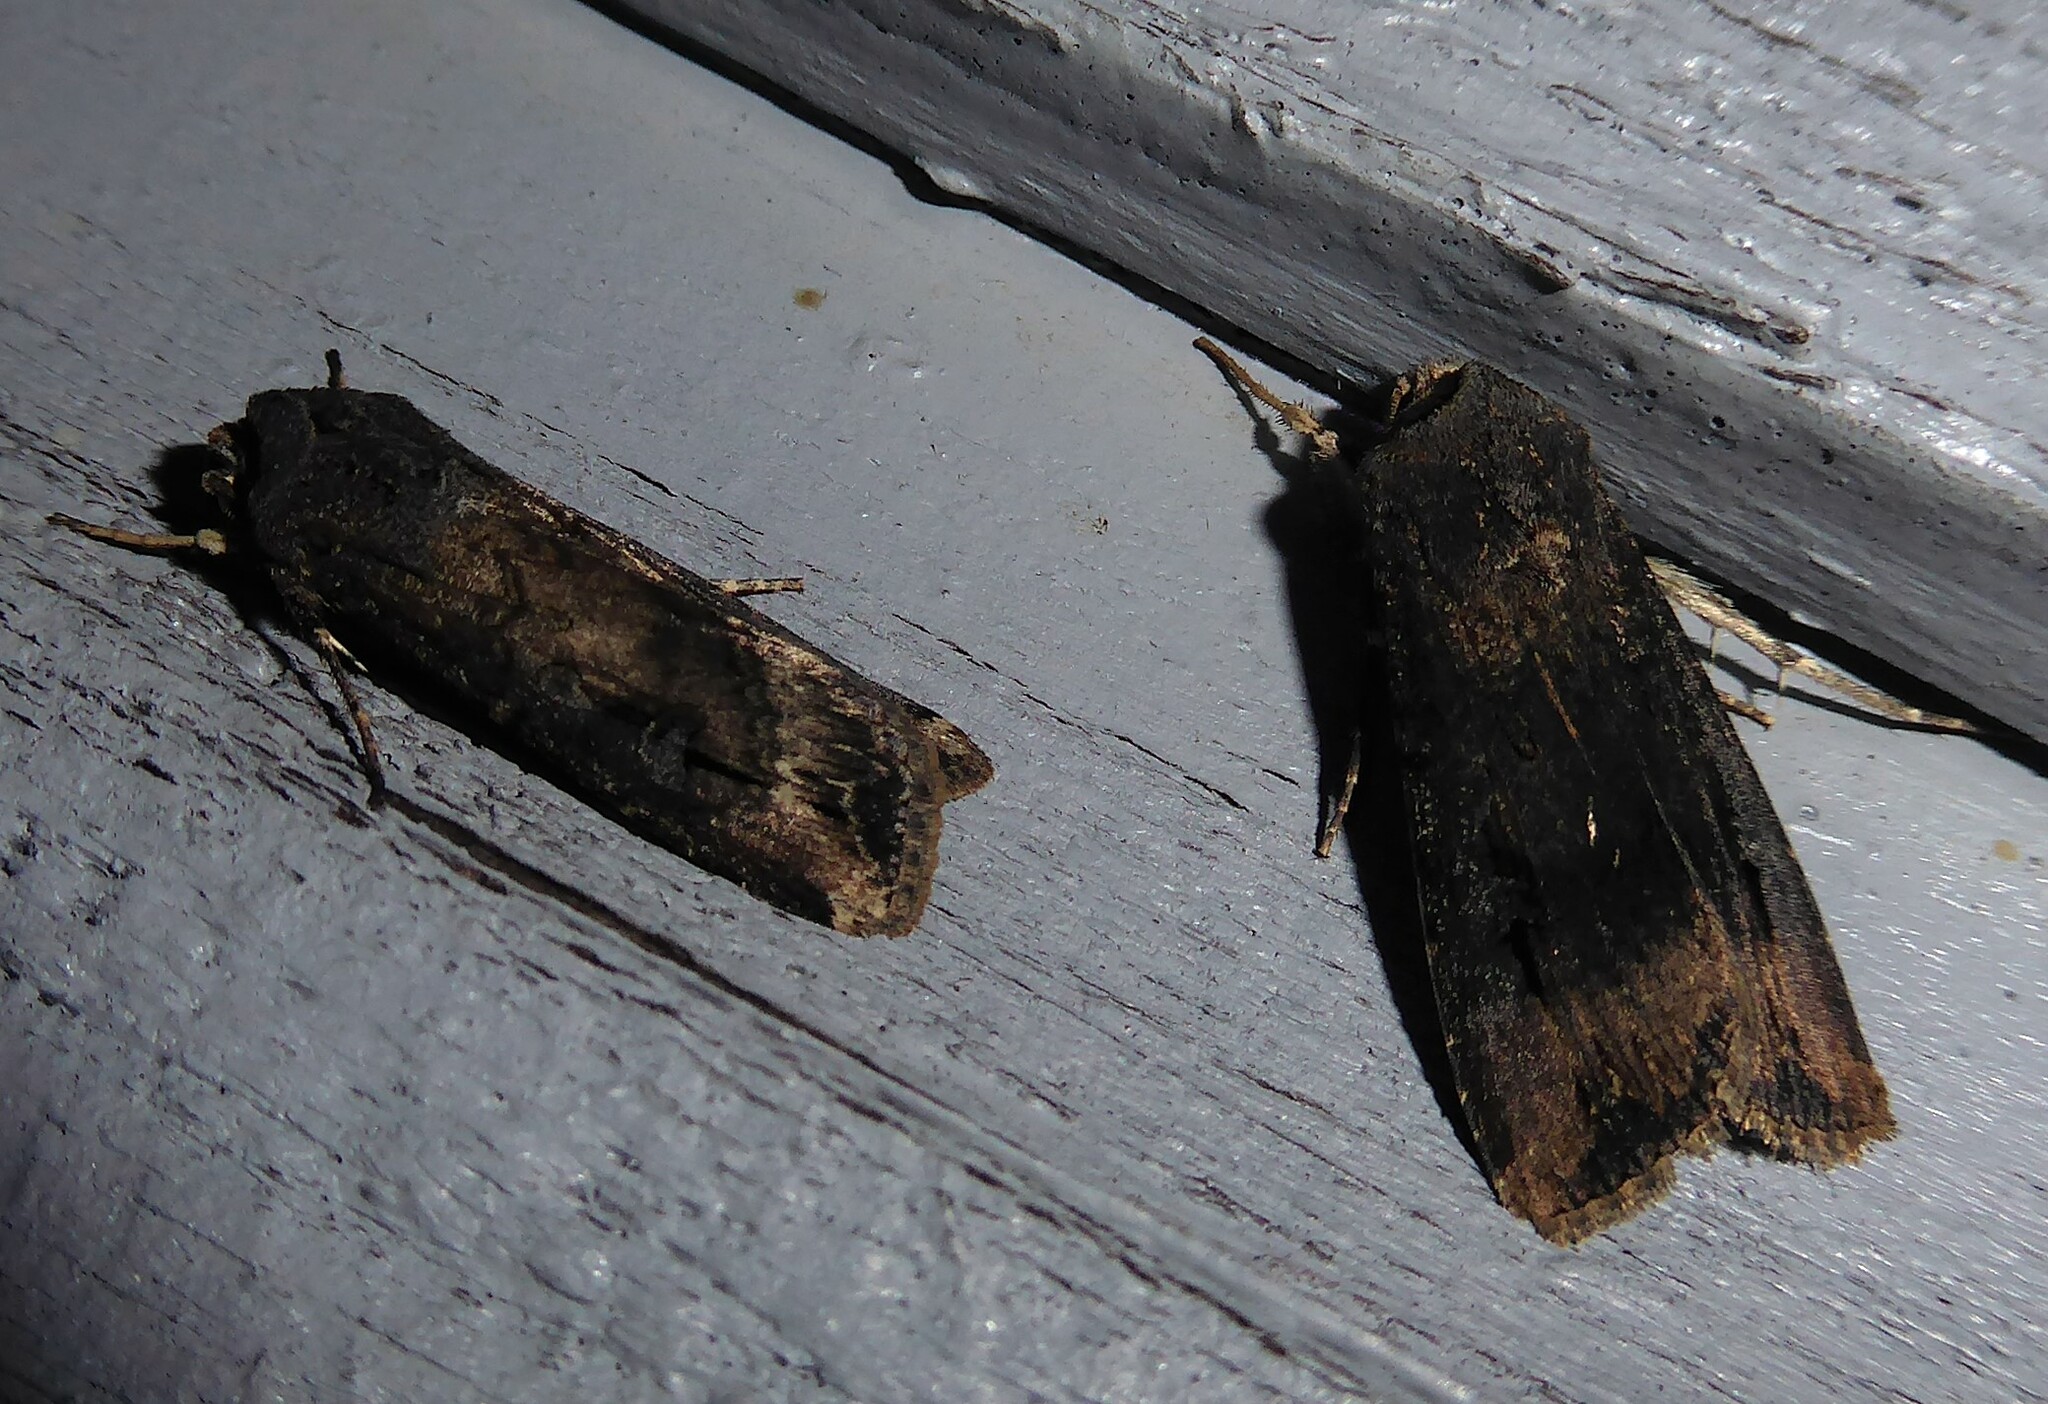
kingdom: Animalia
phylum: Arthropoda
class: Insecta
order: Lepidoptera
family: Noctuidae
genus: Agrotis
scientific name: Agrotis ipsilon
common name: Dark sword-grass
